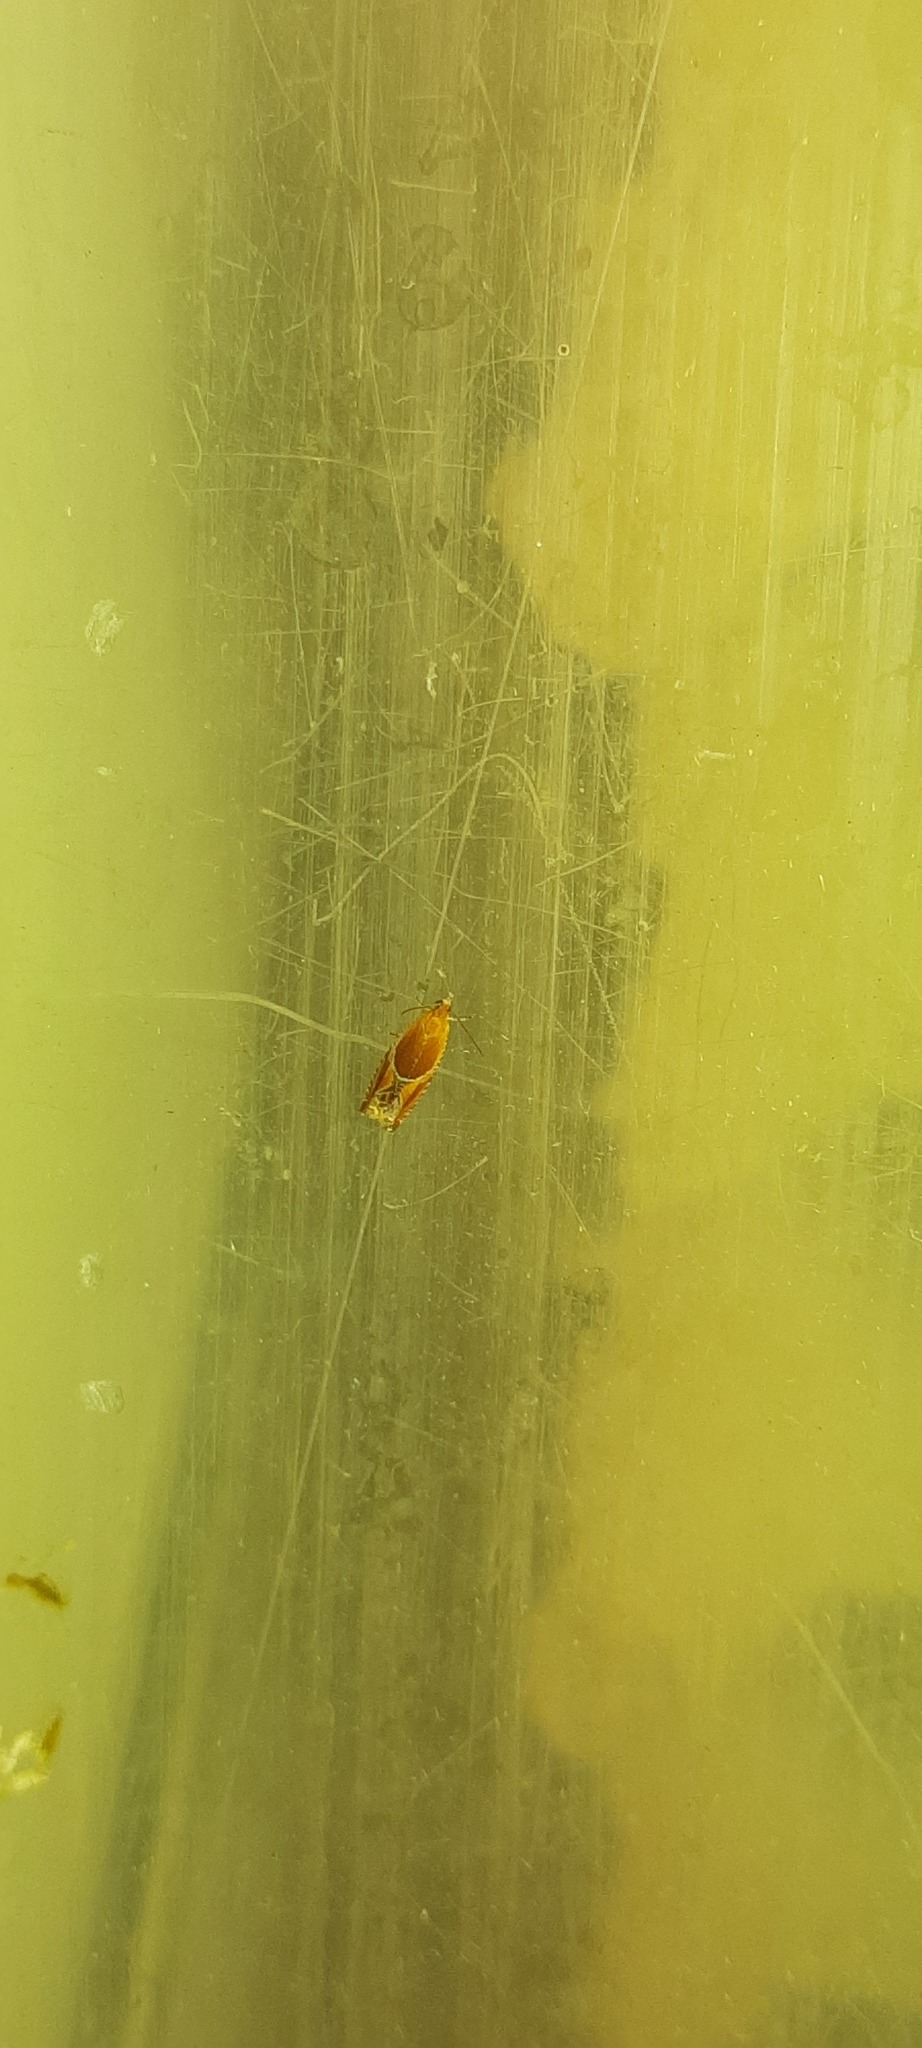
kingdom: Animalia
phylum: Arthropoda
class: Insecta
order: Lepidoptera
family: Tortricidae
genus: Ancylis
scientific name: Ancylis obtusana
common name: Small buckthorn roller
